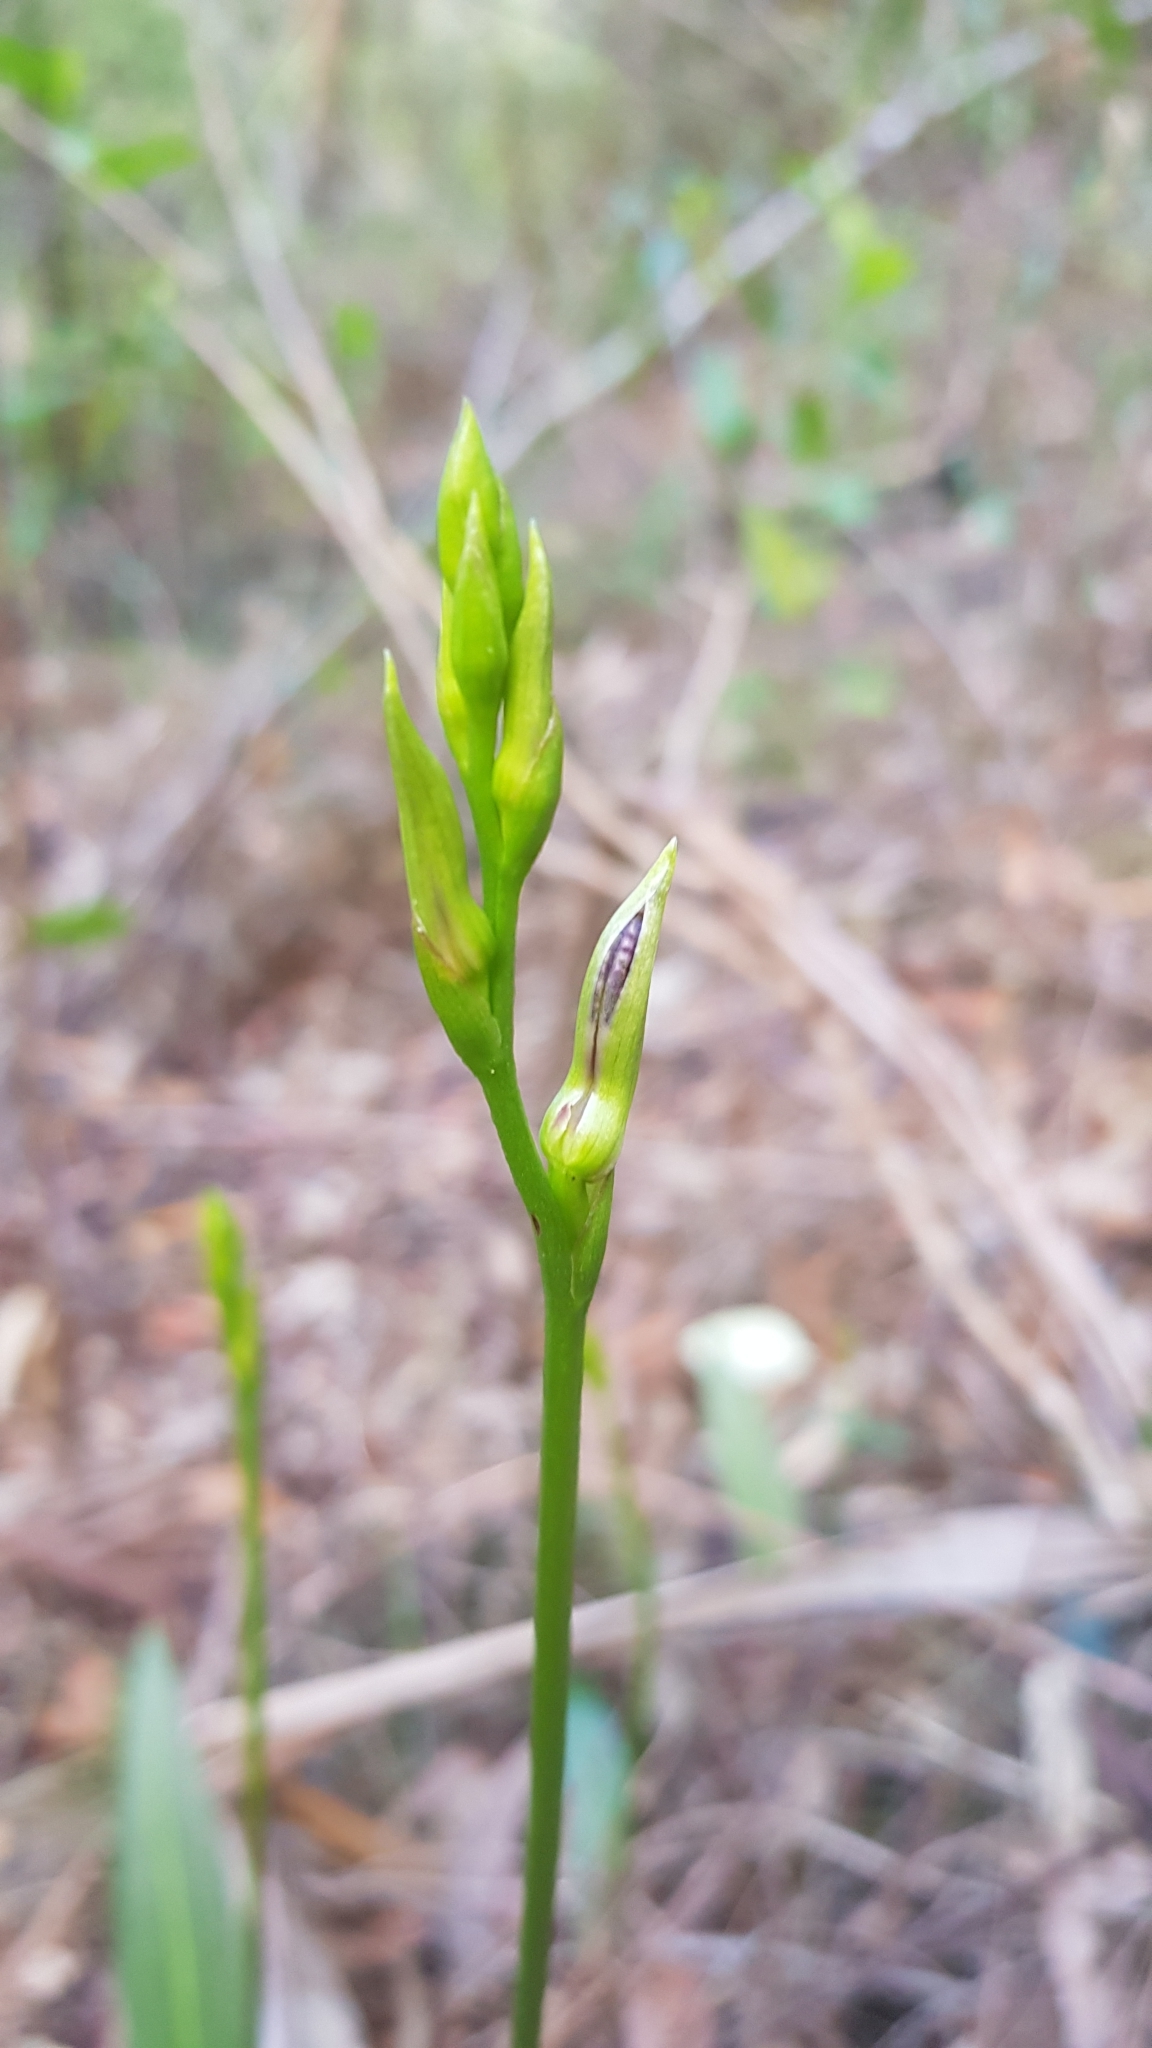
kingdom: Plantae
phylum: Tracheophyta
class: Liliopsida
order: Asparagales
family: Orchidaceae
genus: Cryptostylis
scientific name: Cryptostylis erecta
